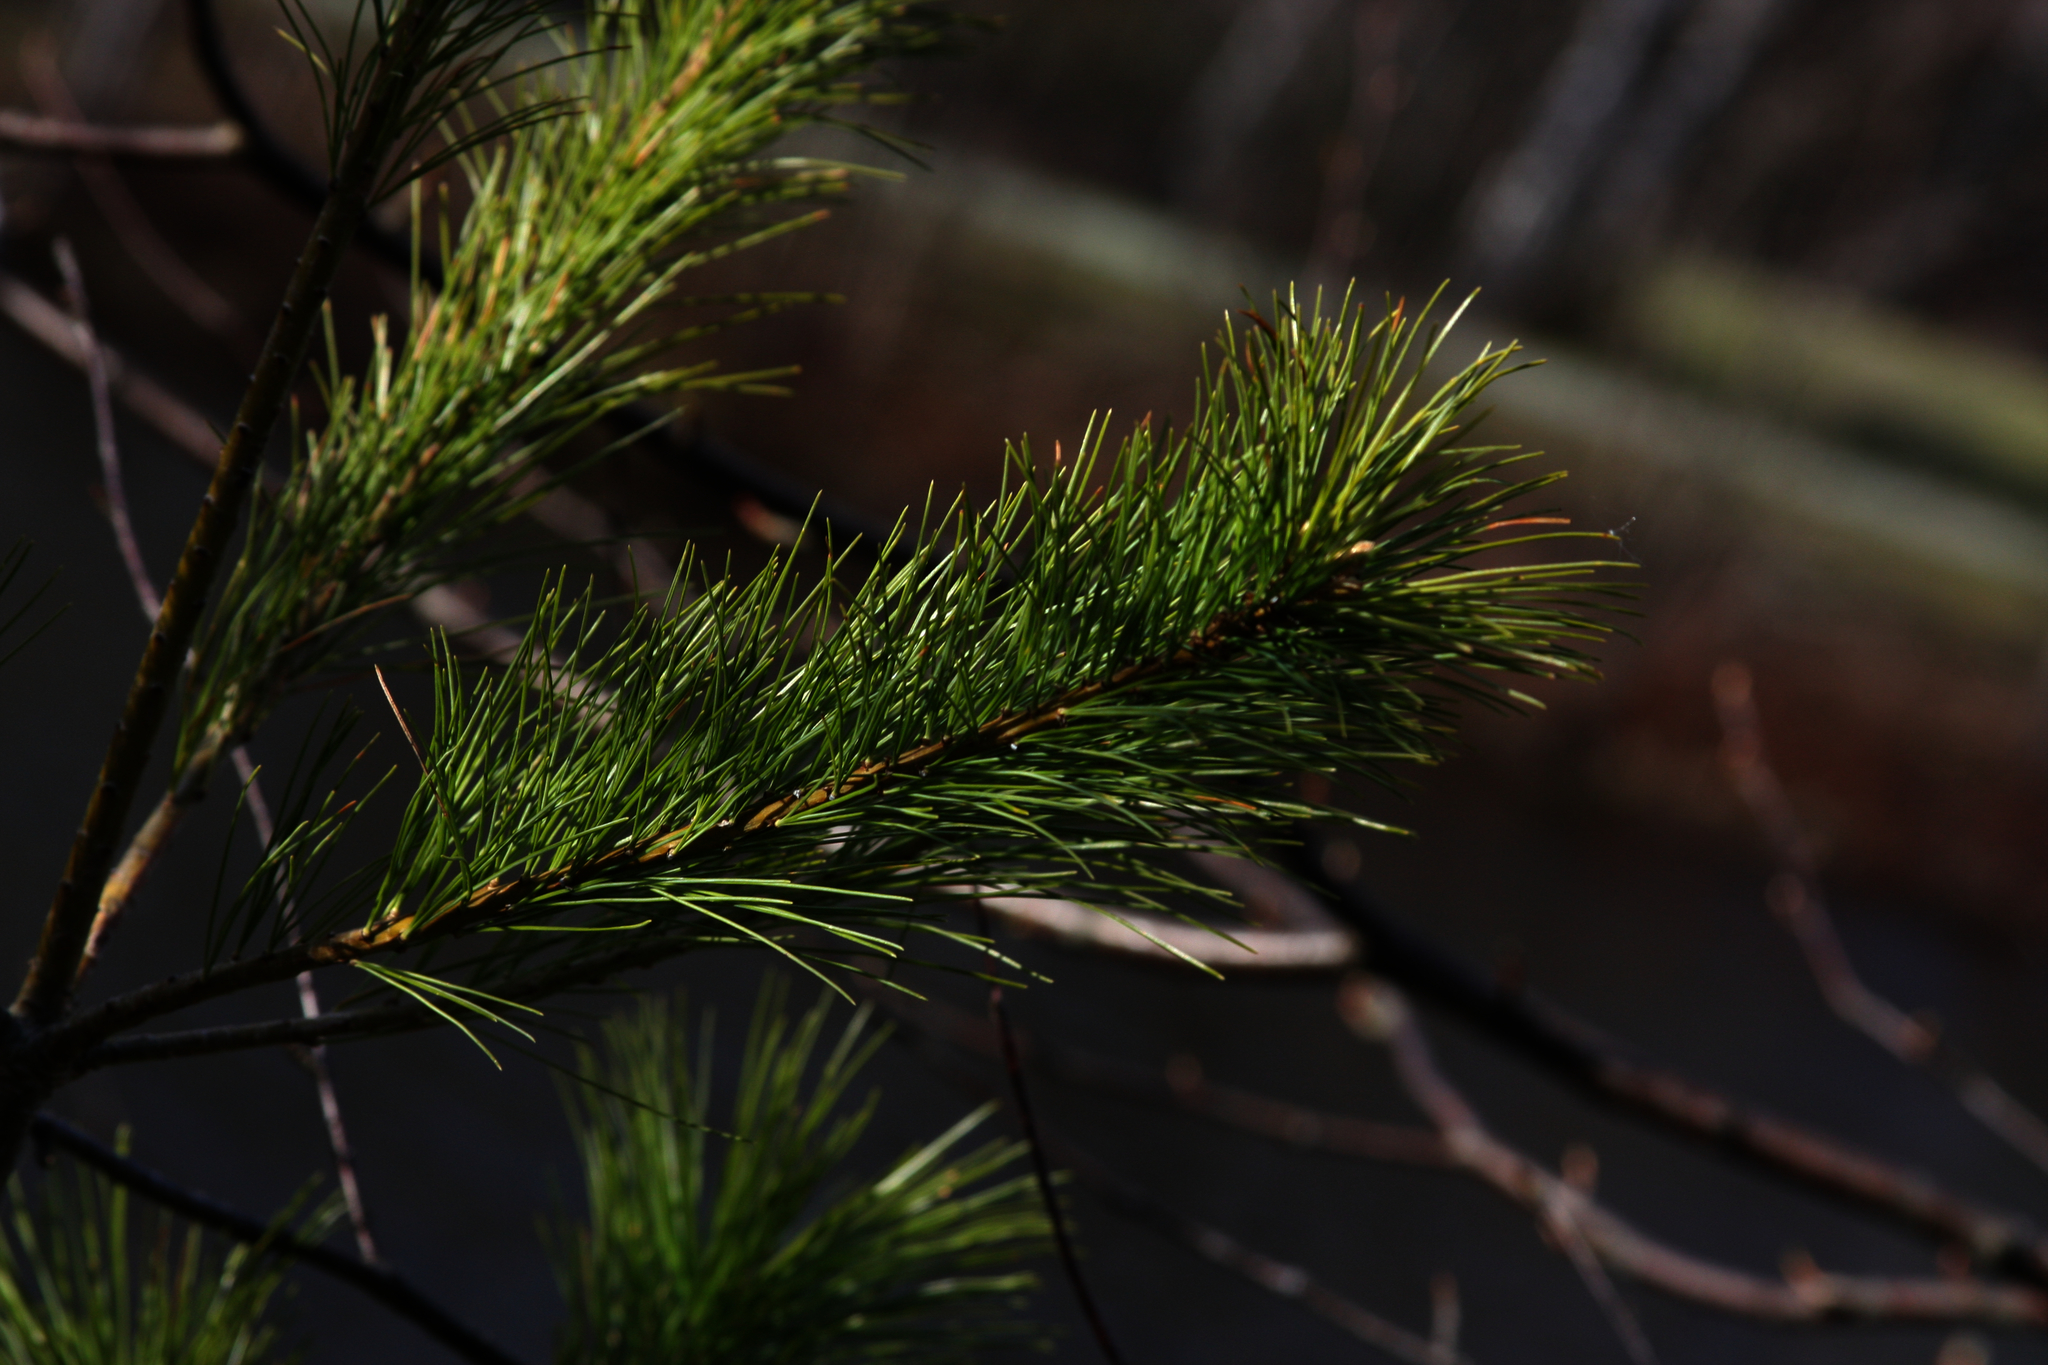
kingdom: Plantae
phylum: Tracheophyta
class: Pinopsida
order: Pinales
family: Pinaceae
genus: Pinus
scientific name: Pinus strobus
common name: Weymouth pine
